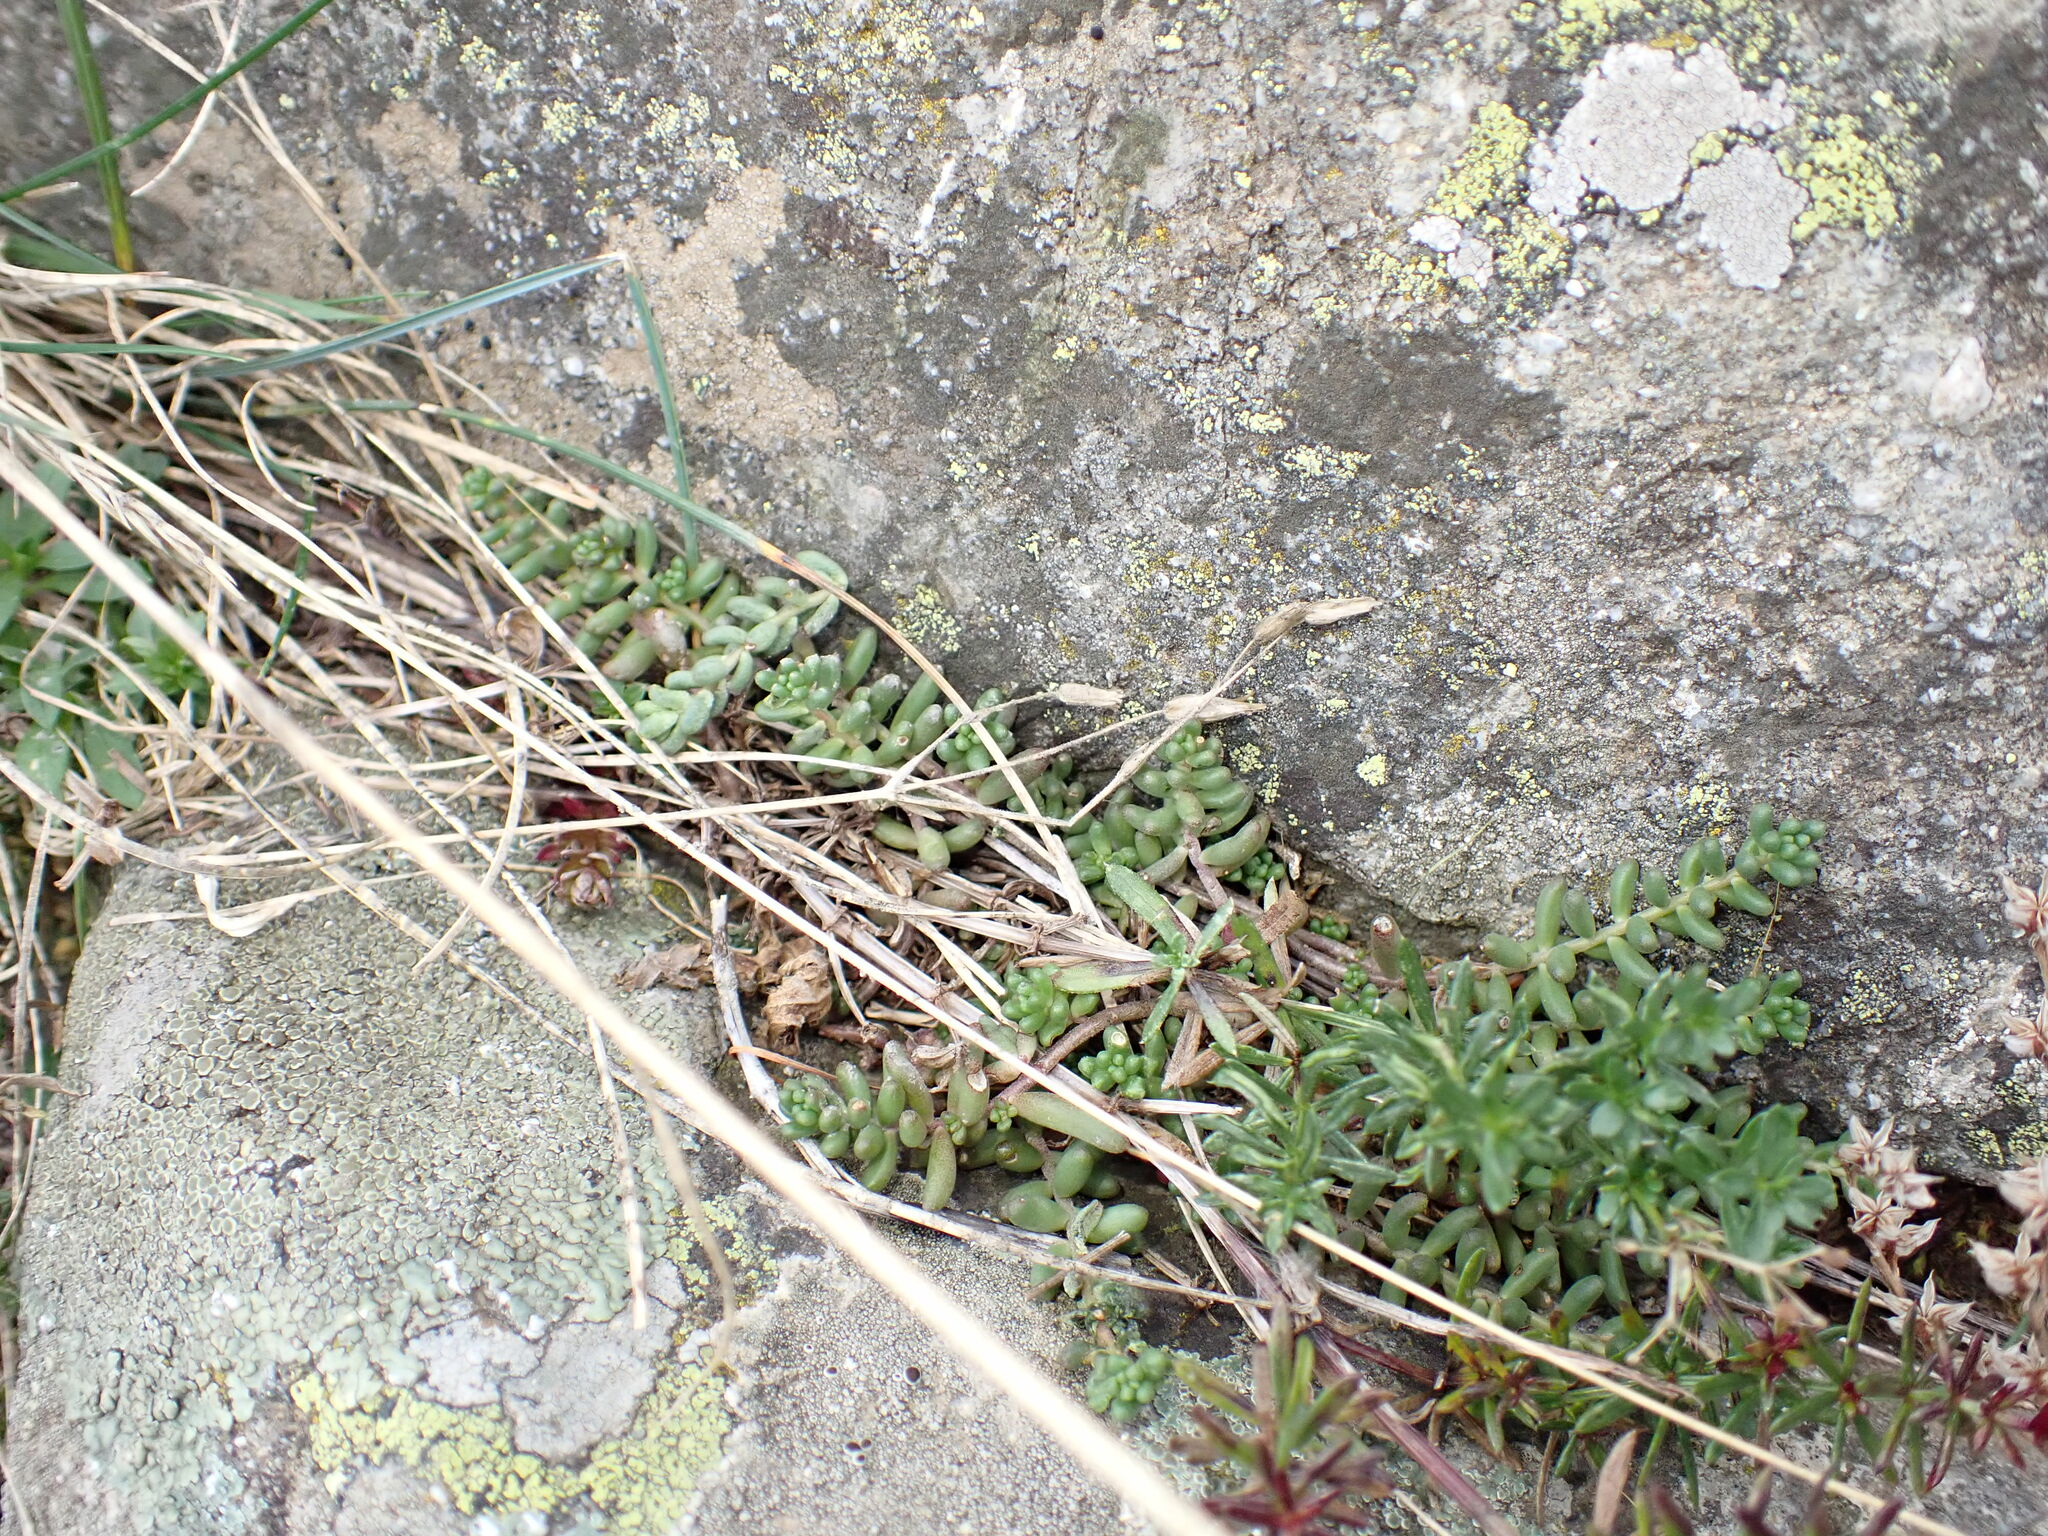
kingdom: Plantae
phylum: Tracheophyta
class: Magnoliopsida
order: Saxifragales
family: Crassulaceae
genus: Sedum
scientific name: Sedum album
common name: White stonecrop
